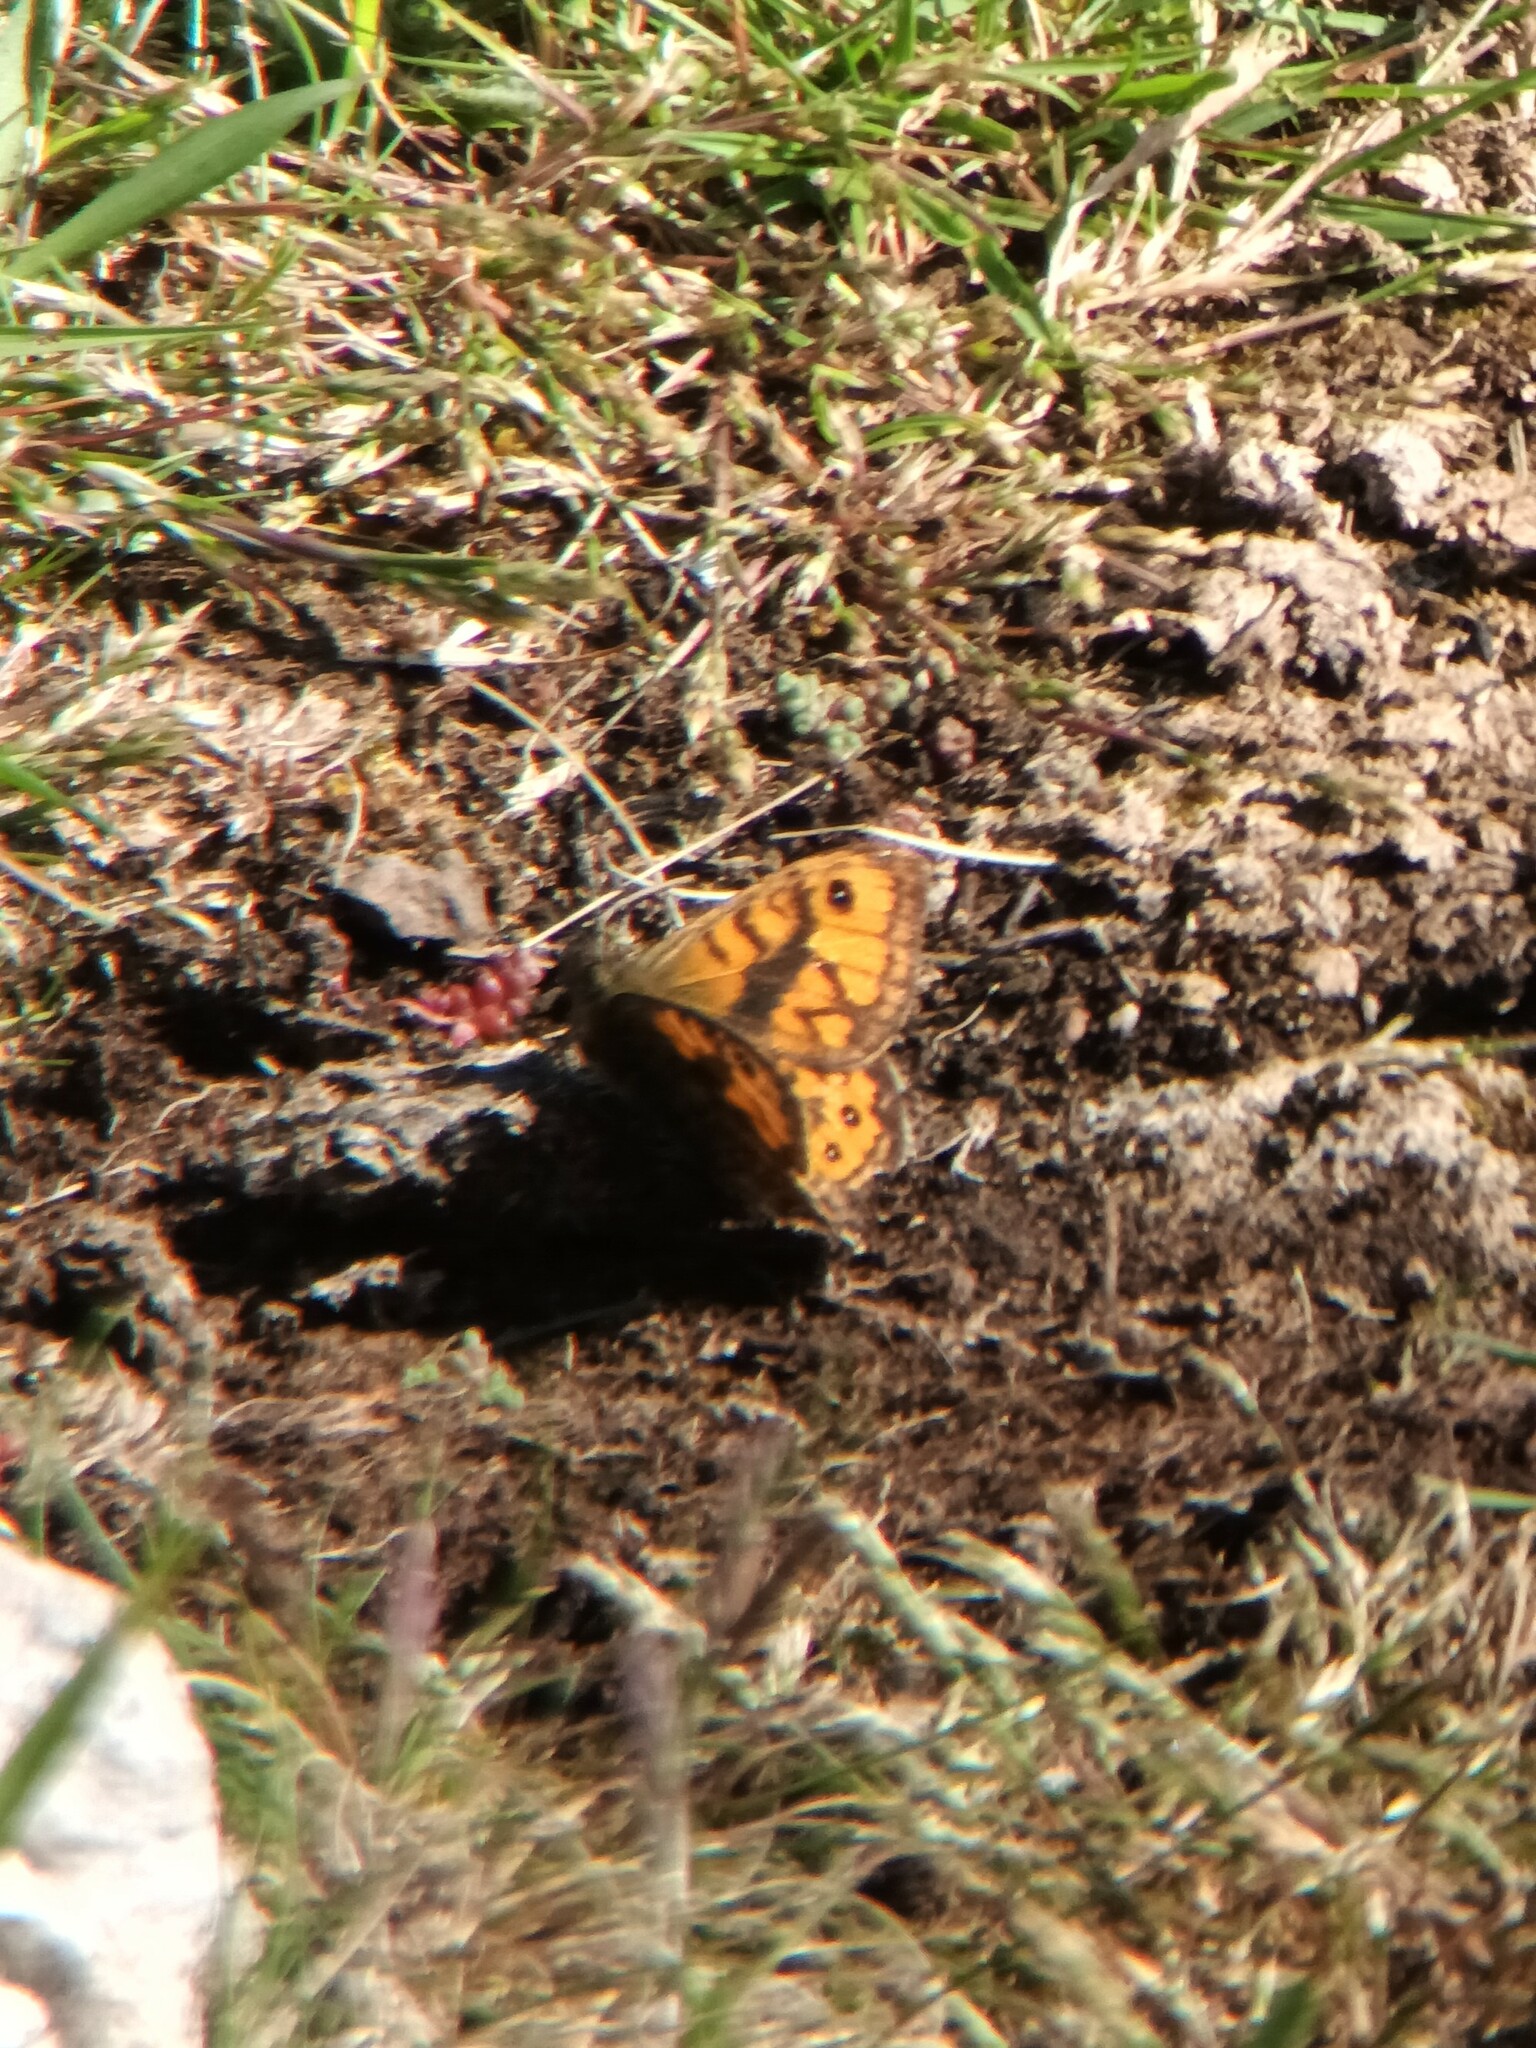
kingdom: Animalia
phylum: Arthropoda
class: Insecta
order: Lepidoptera
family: Nymphalidae
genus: Pararge
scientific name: Pararge Lasiommata megera
